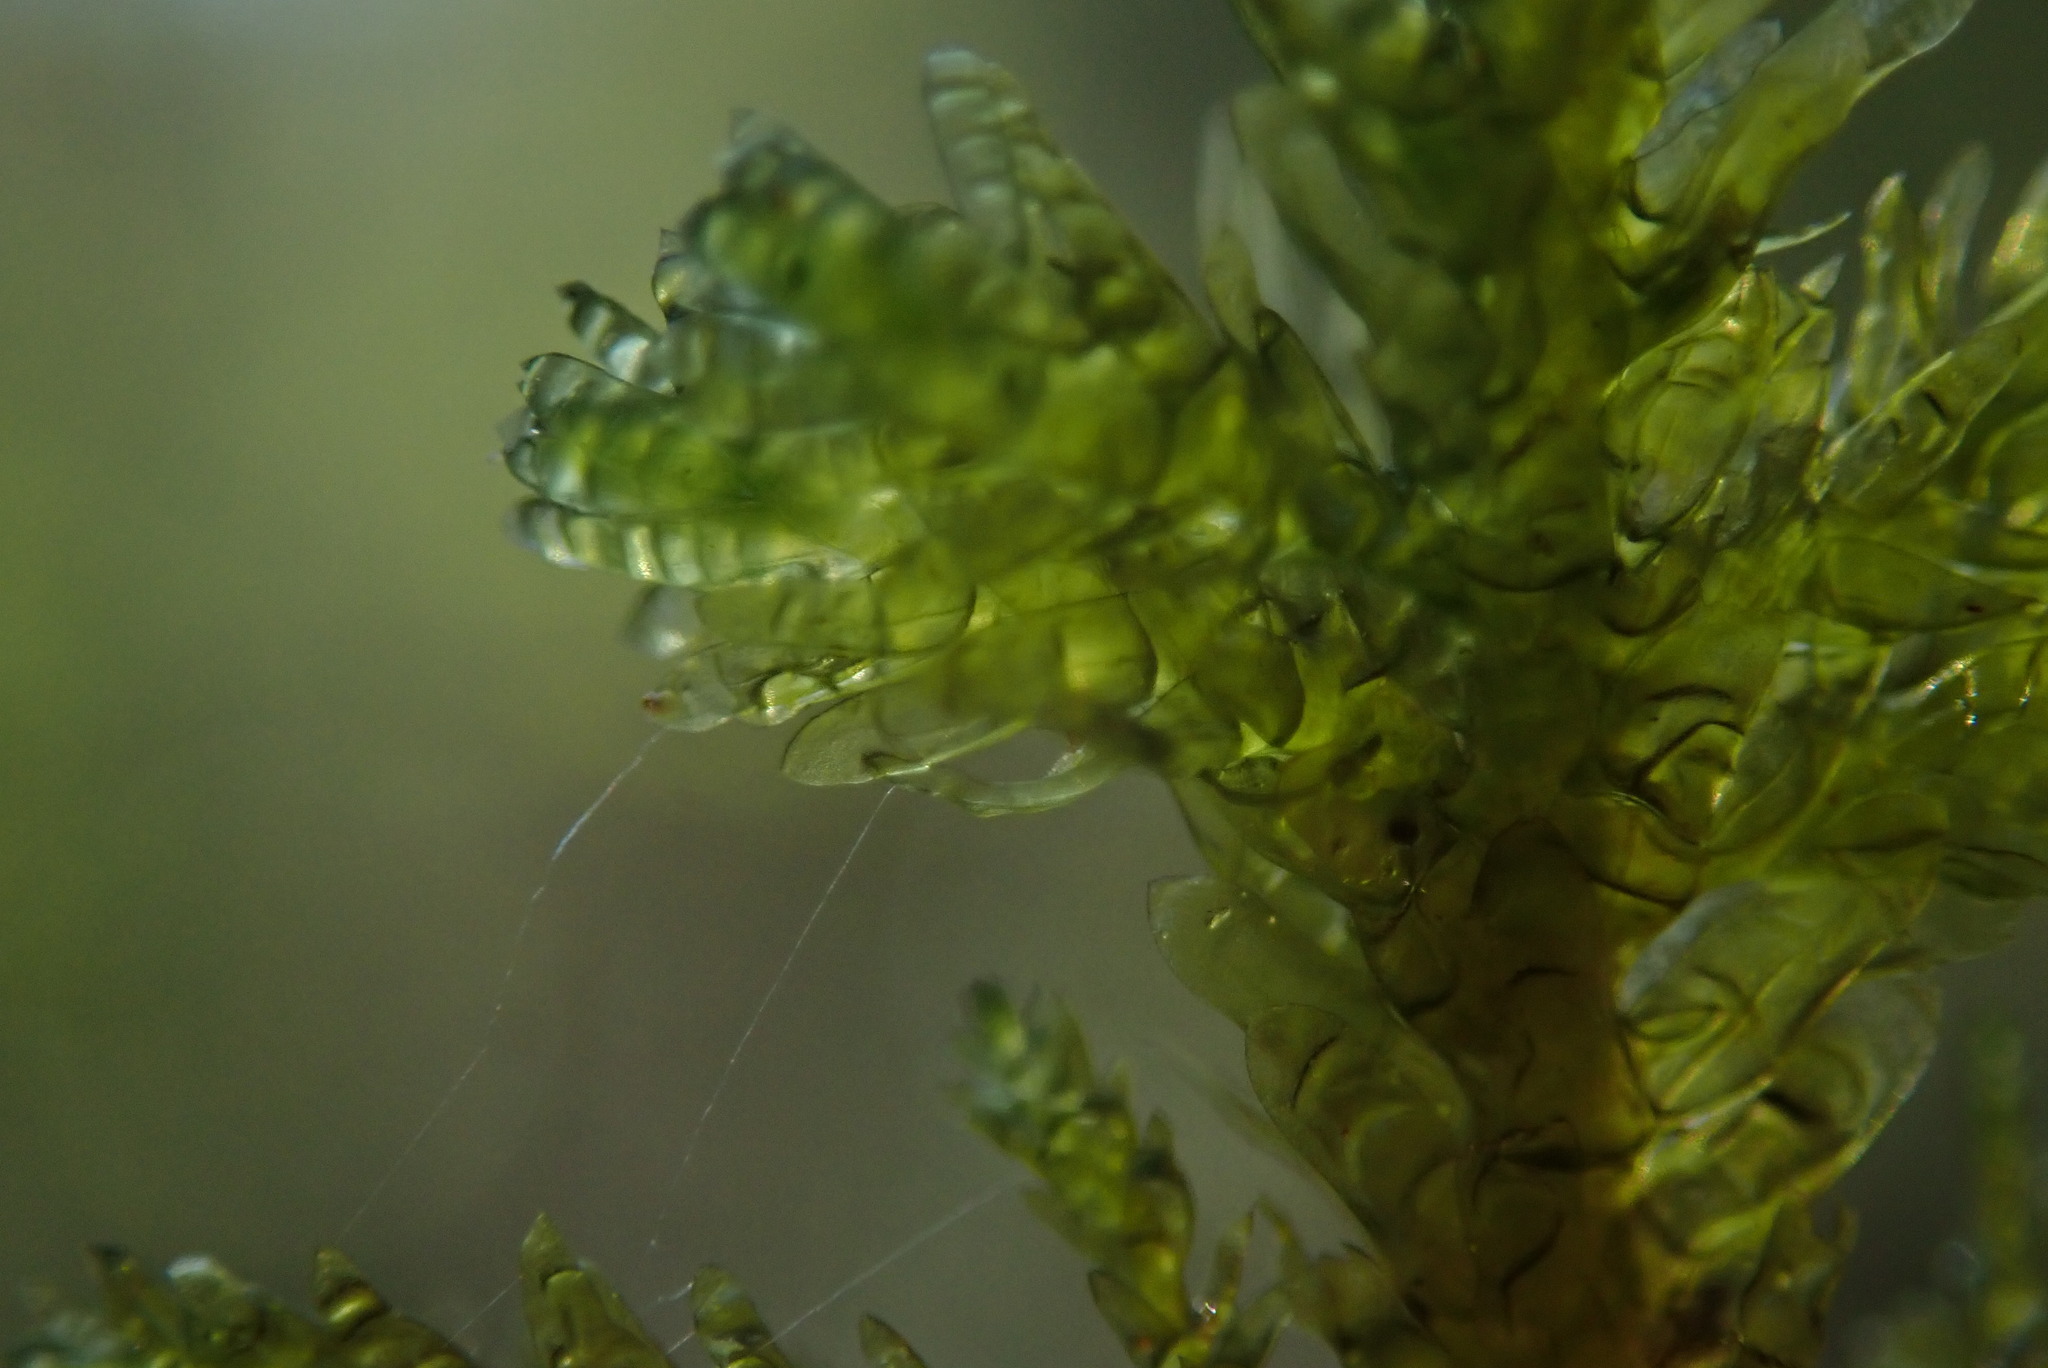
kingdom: Plantae
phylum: Bryophyta
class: Bryopsida
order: Hypnales
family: Neckeraceae
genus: Metaneckera
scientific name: Metaneckera menziesii
